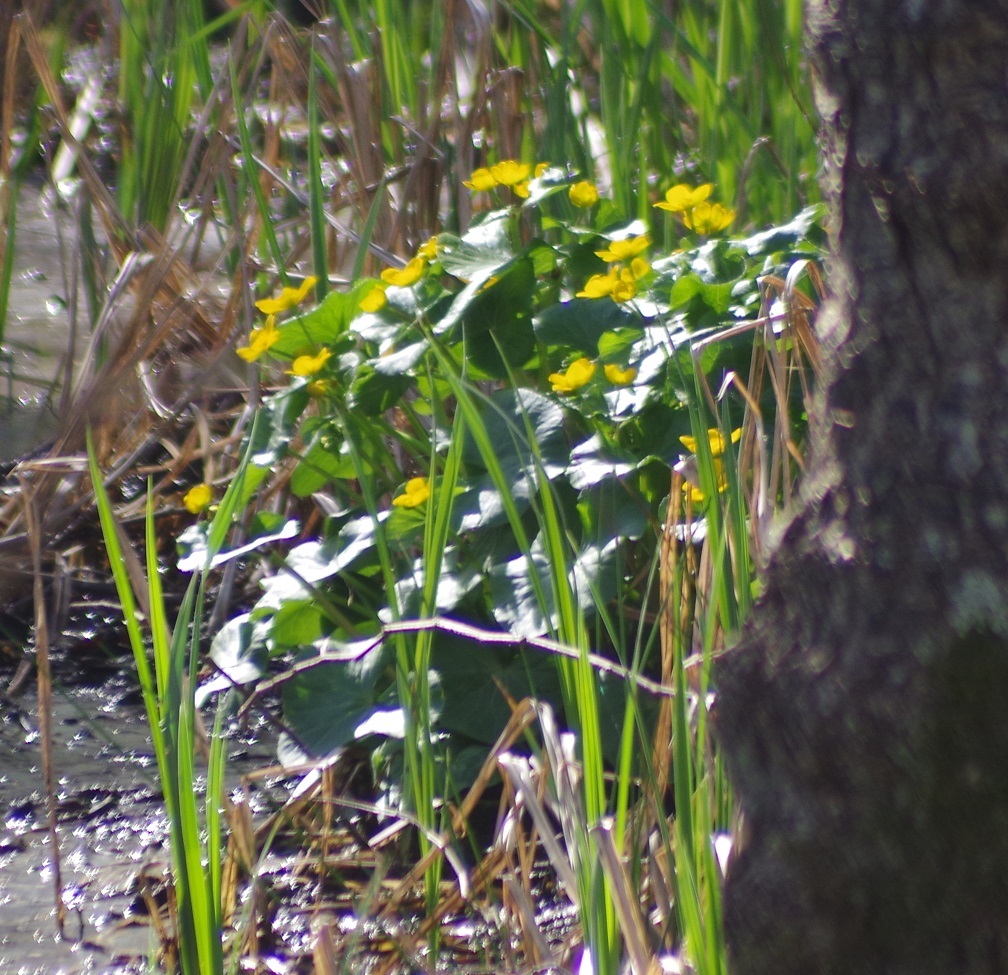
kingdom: Plantae
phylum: Tracheophyta
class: Magnoliopsida
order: Ranunculales
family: Ranunculaceae
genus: Caltha
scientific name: Caltha palustris
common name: Marsh marigold
